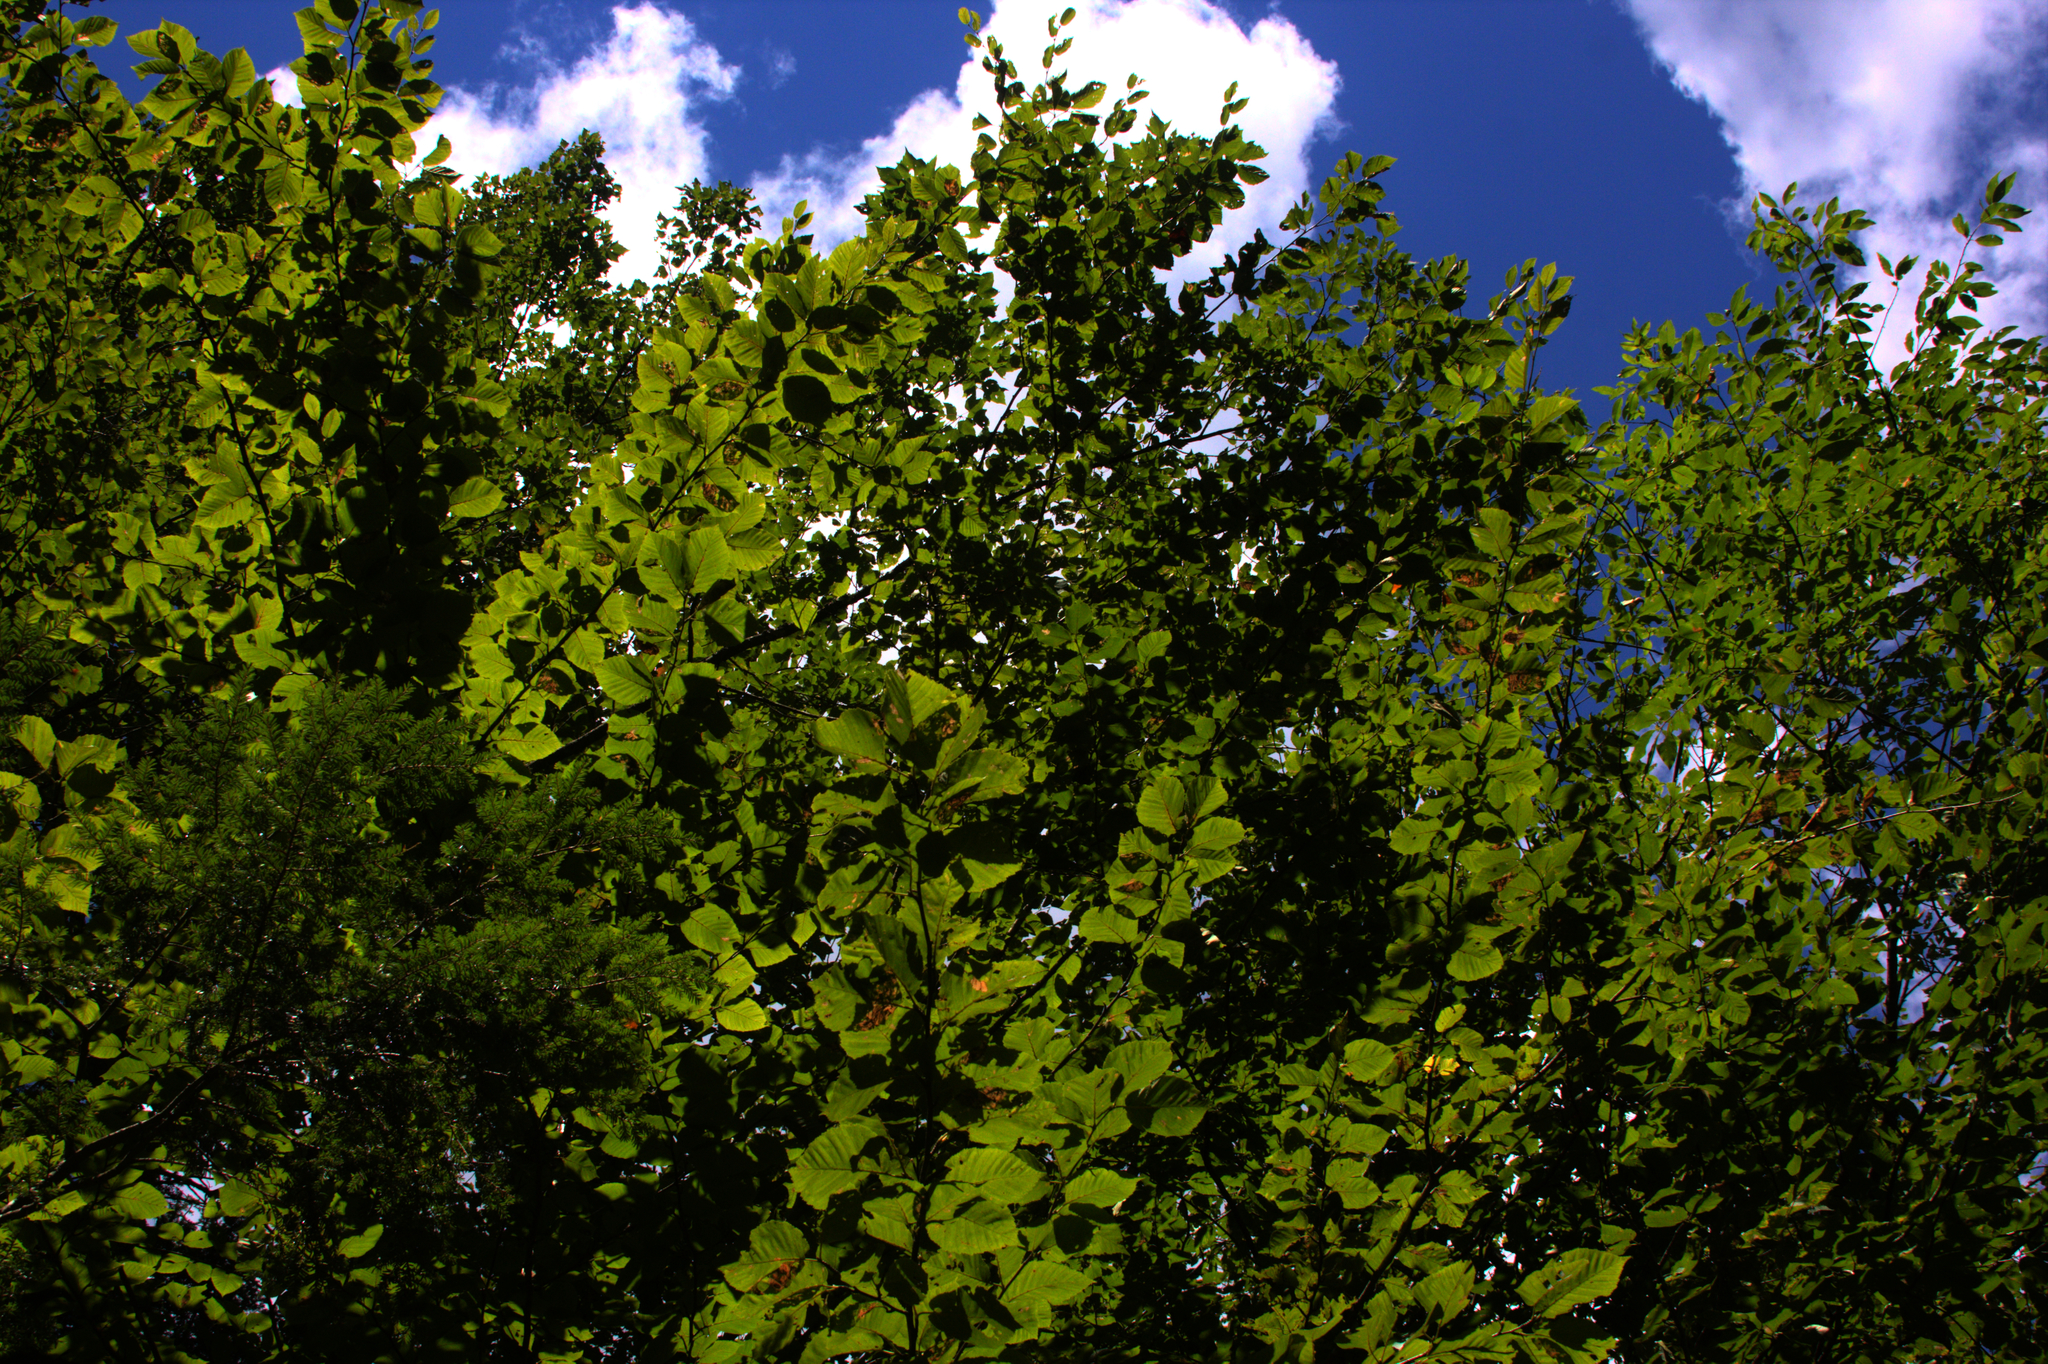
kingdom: Plantae
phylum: Tracheophyta
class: Magnoliopsida
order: Fagales
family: Betulaceae
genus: Betula
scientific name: Betula alleghaniensis
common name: Yellow birch
